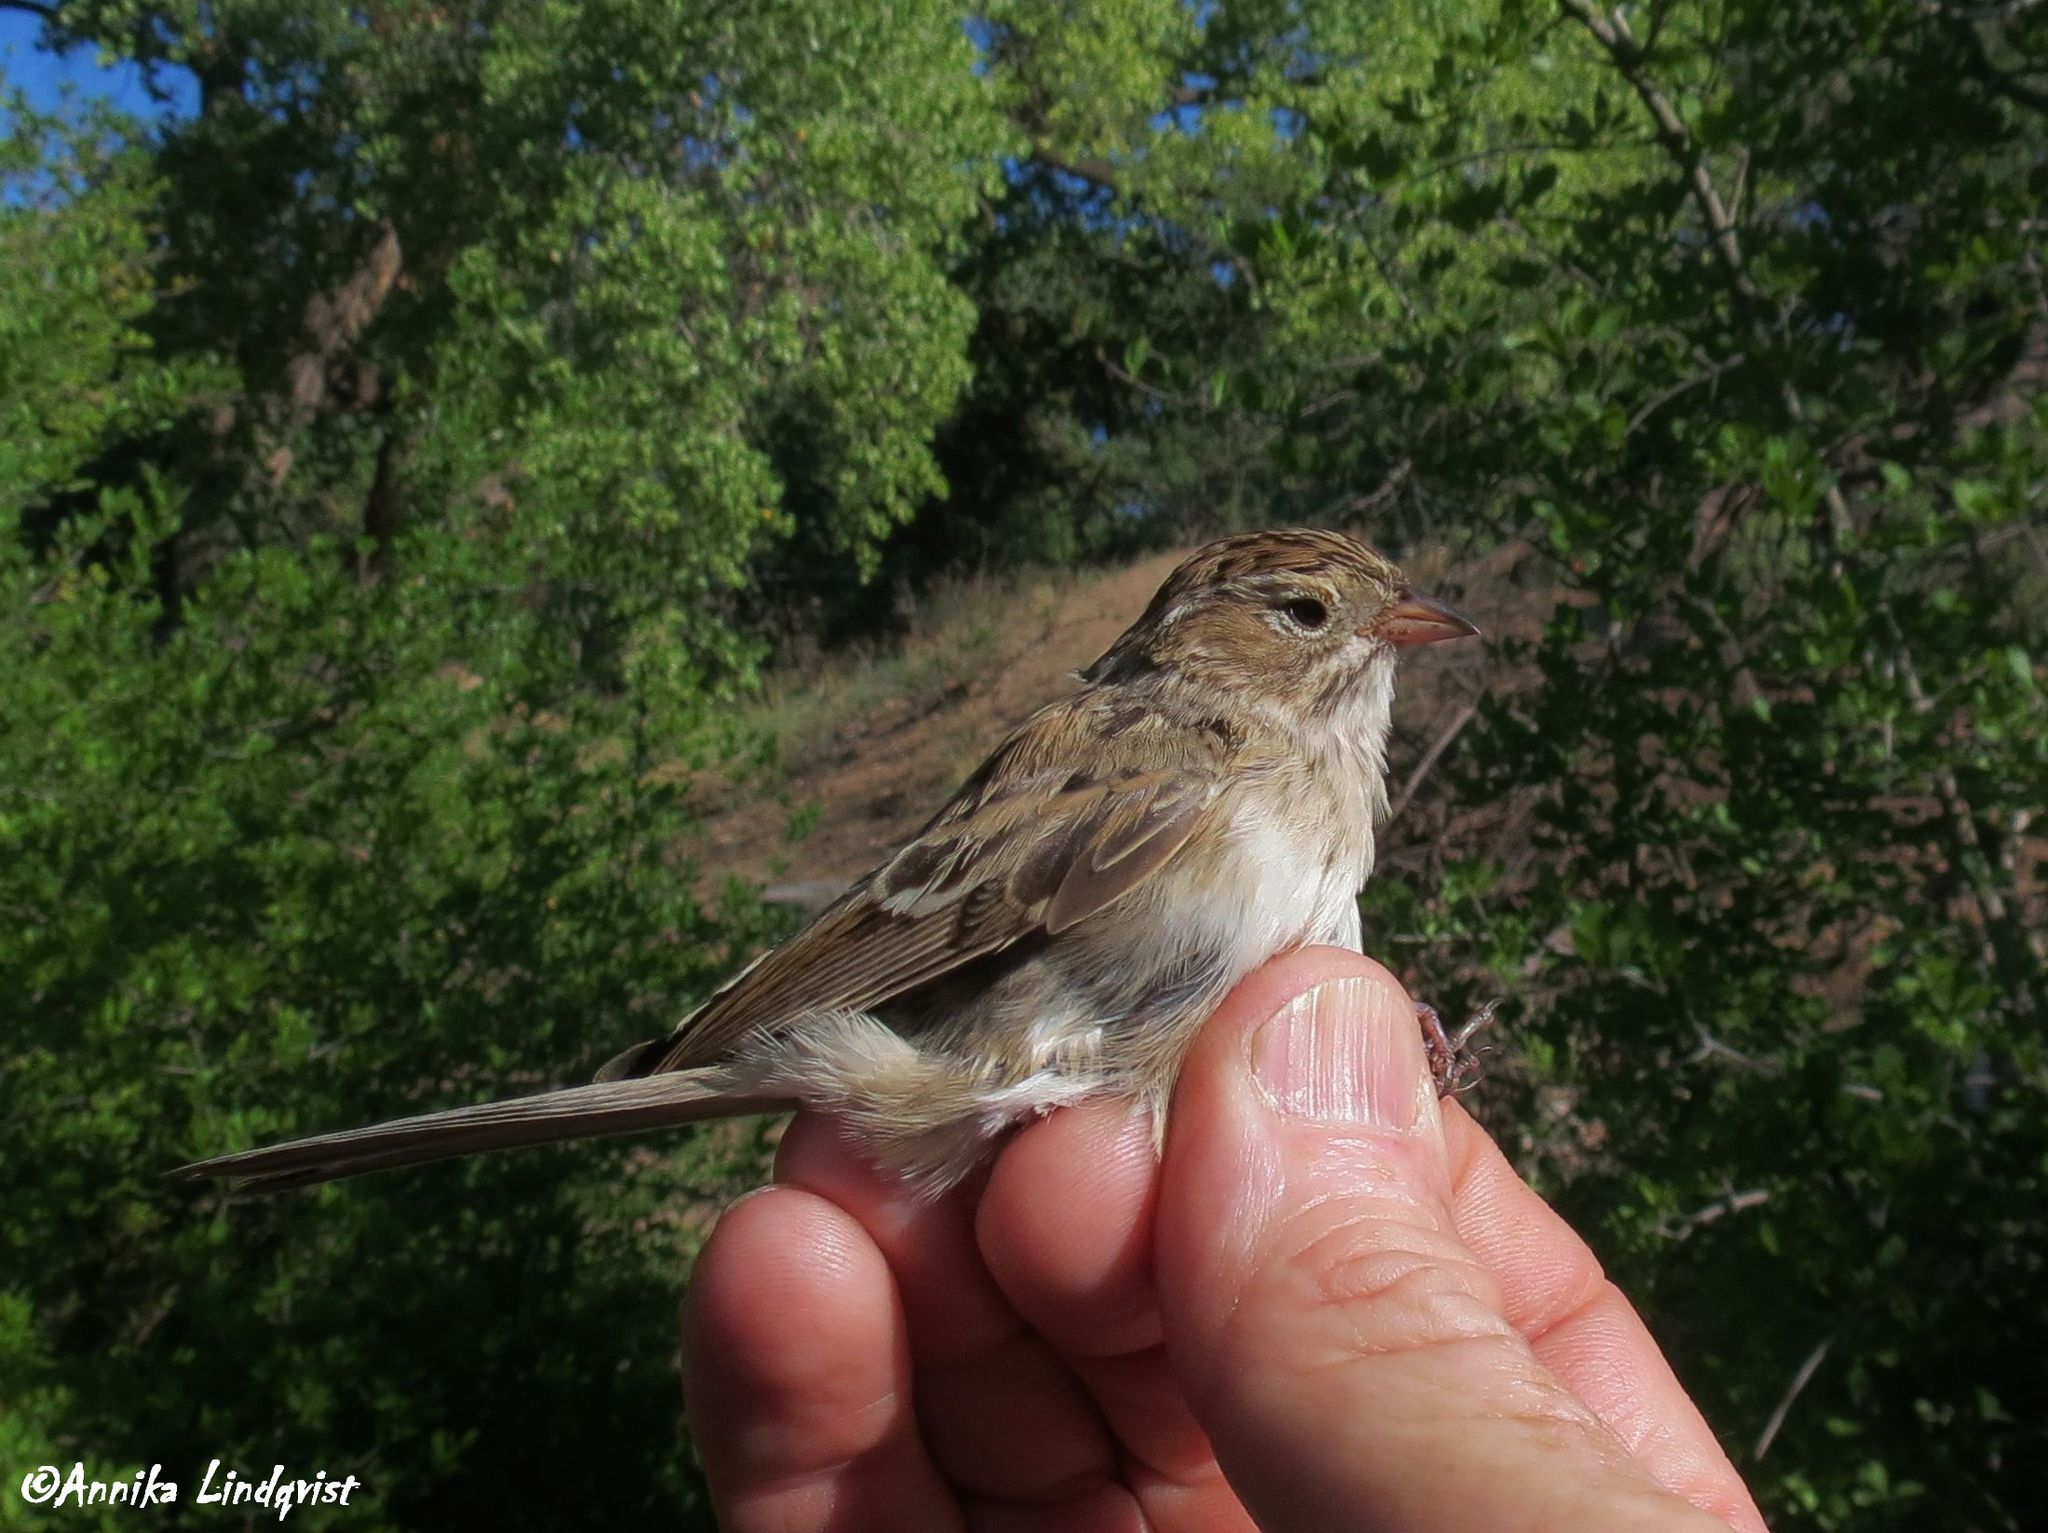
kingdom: Animalia
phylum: Chordata
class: Aves
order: Passeriformes
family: Passerellidae
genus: Spizella
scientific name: Spizella breweri
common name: Brewer's sparrow
